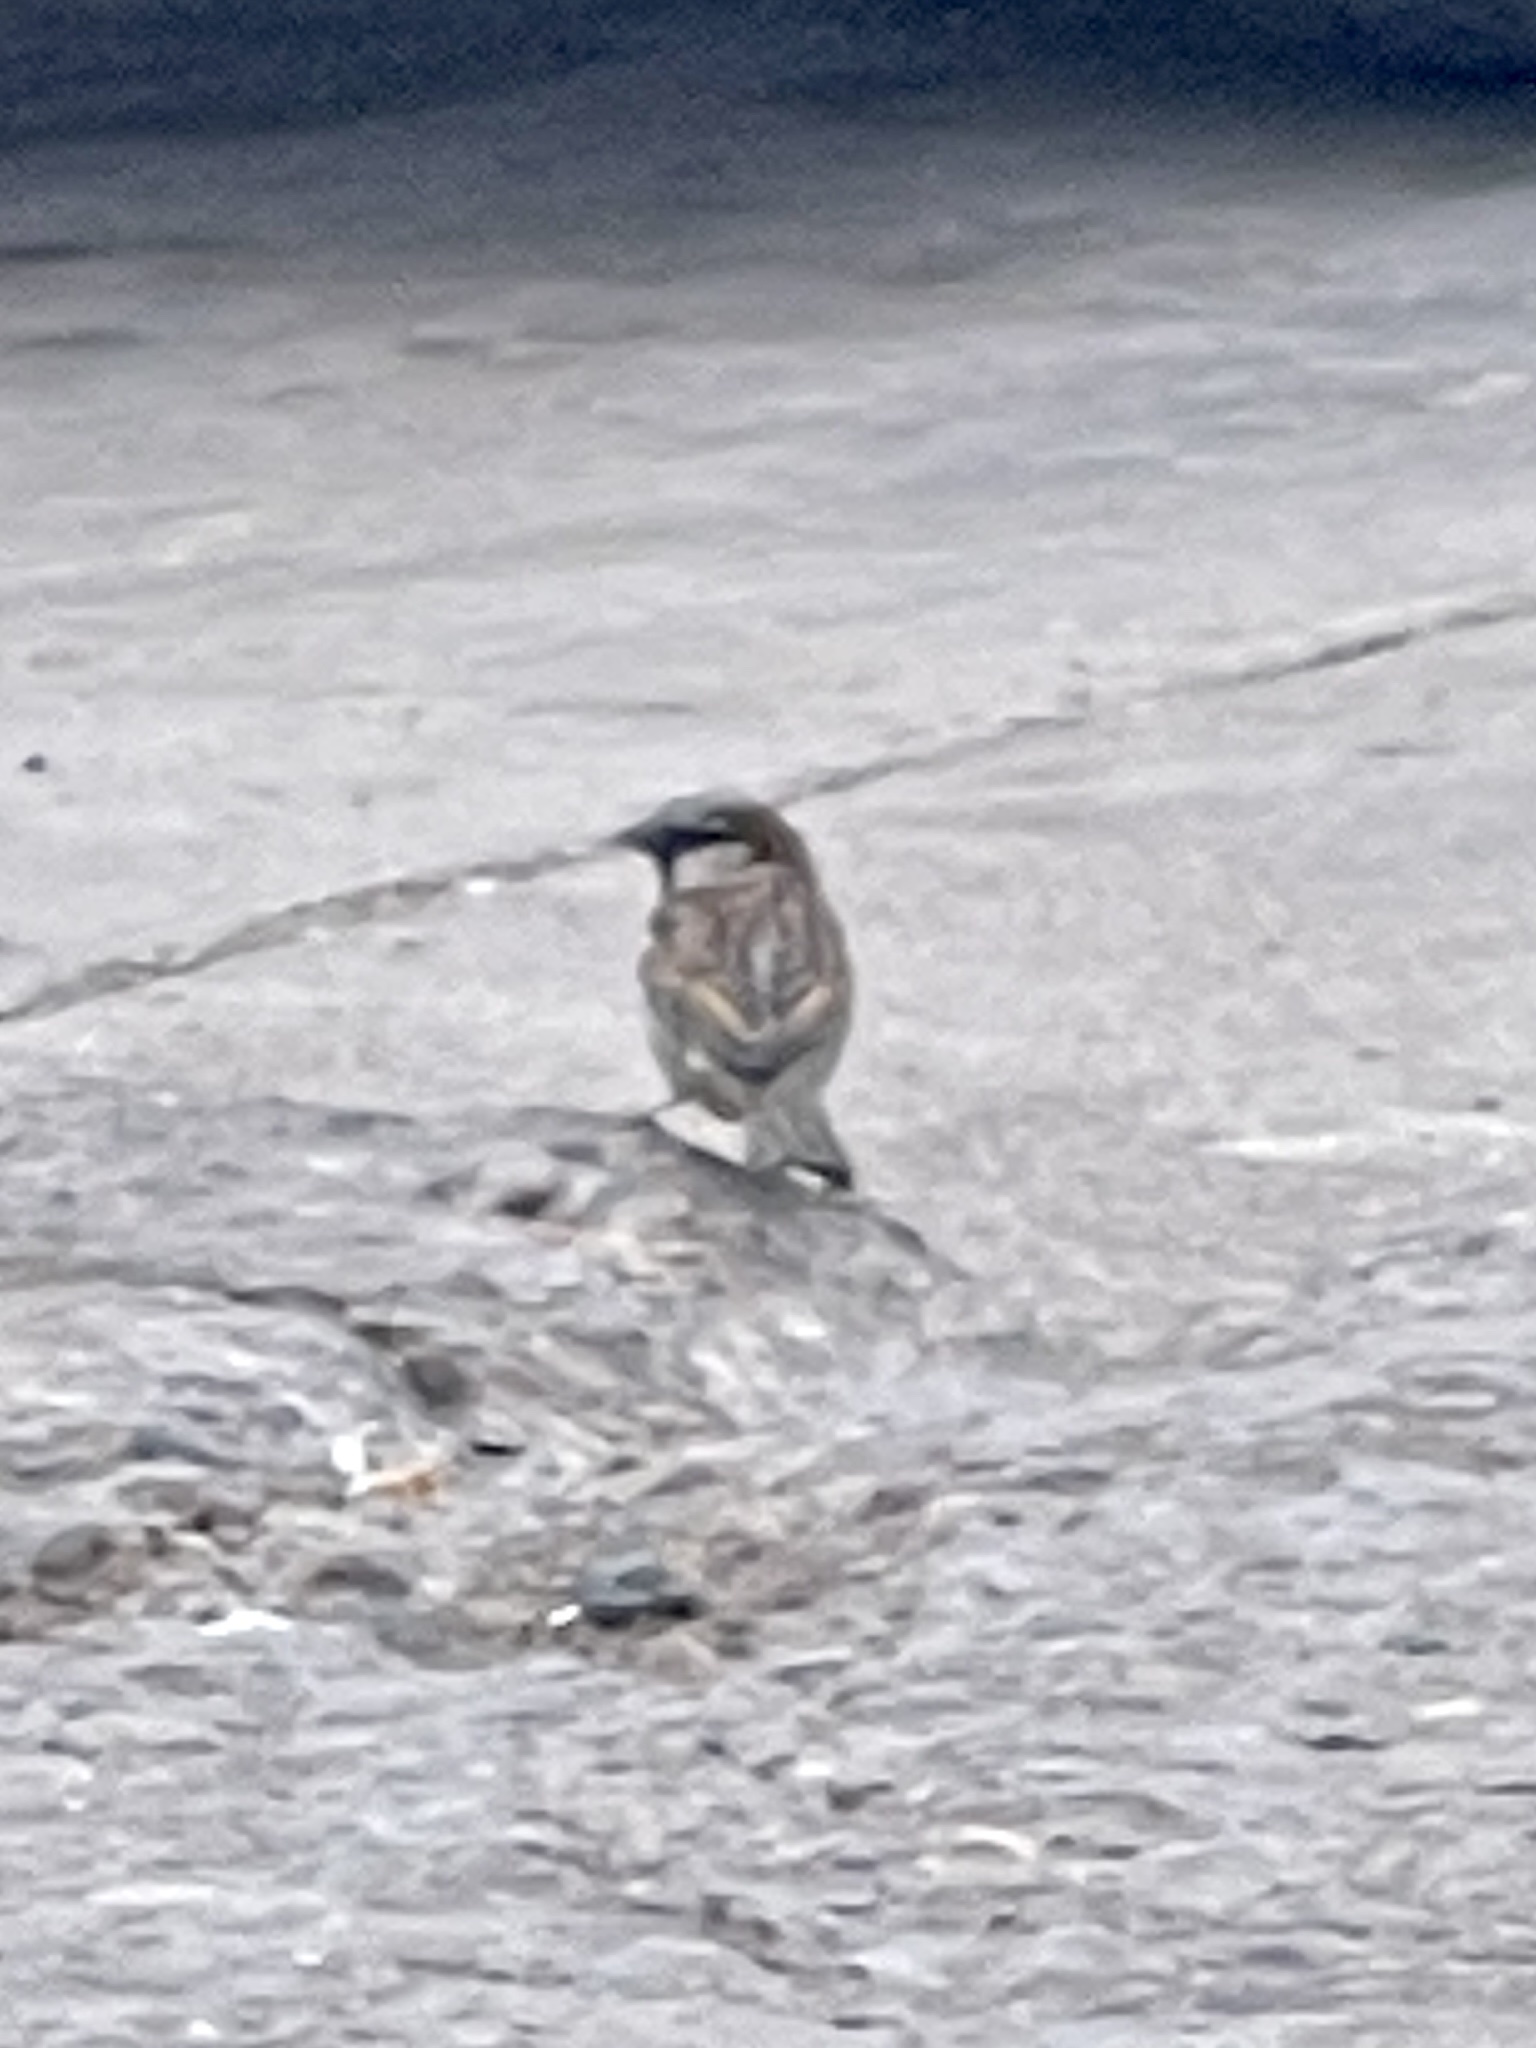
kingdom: Animalia
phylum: Chordata
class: Aves
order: Passeriformes
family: Passeridae
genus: Passer
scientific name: Passer domesticus
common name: House sparrow
